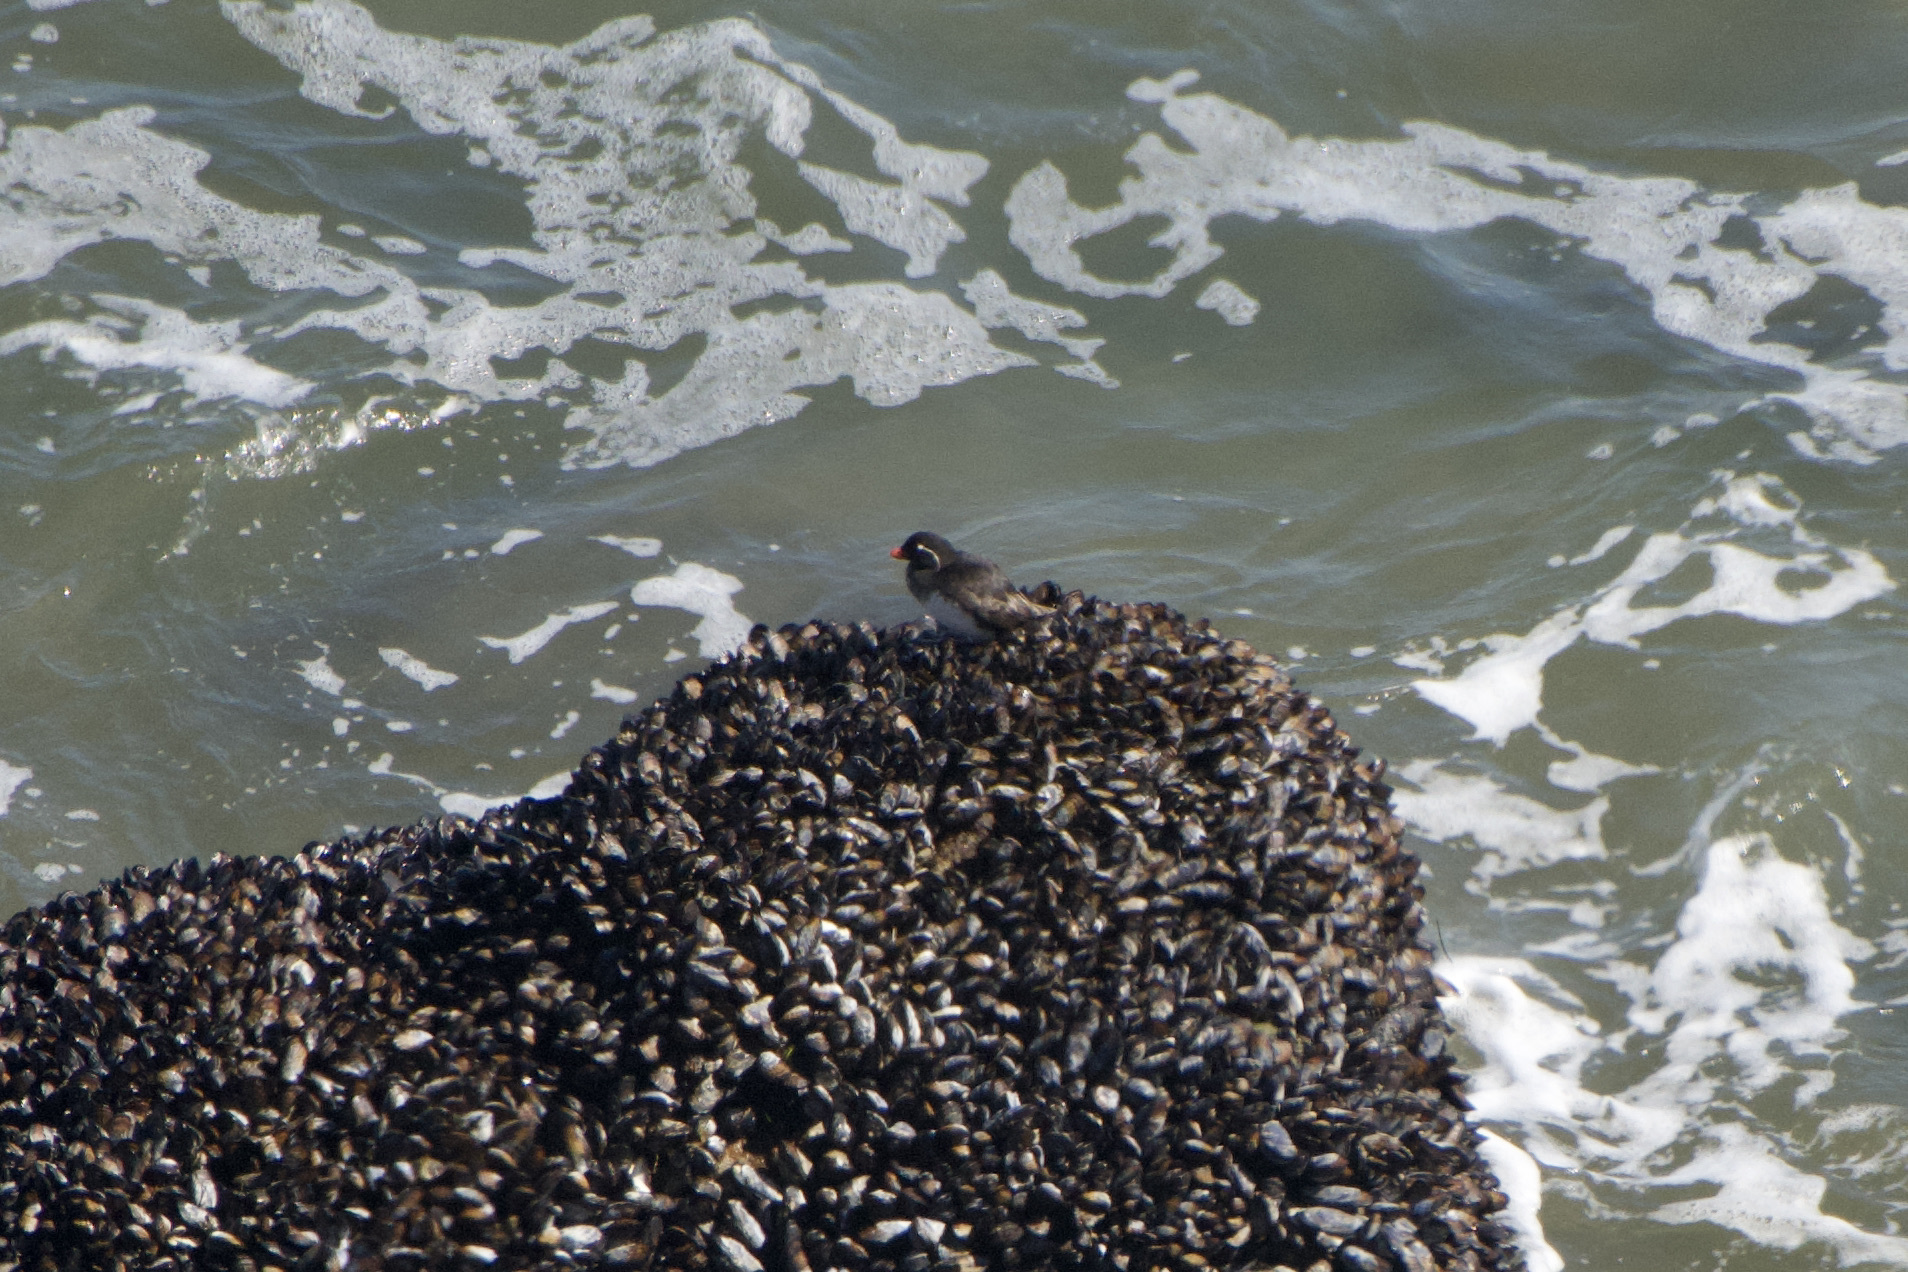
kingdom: Animalia
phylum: Chordata
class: Aves
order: Charadriiformes
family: Alcidae
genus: Aethia
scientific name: Aethia psittacula
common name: Parakeet auklet
